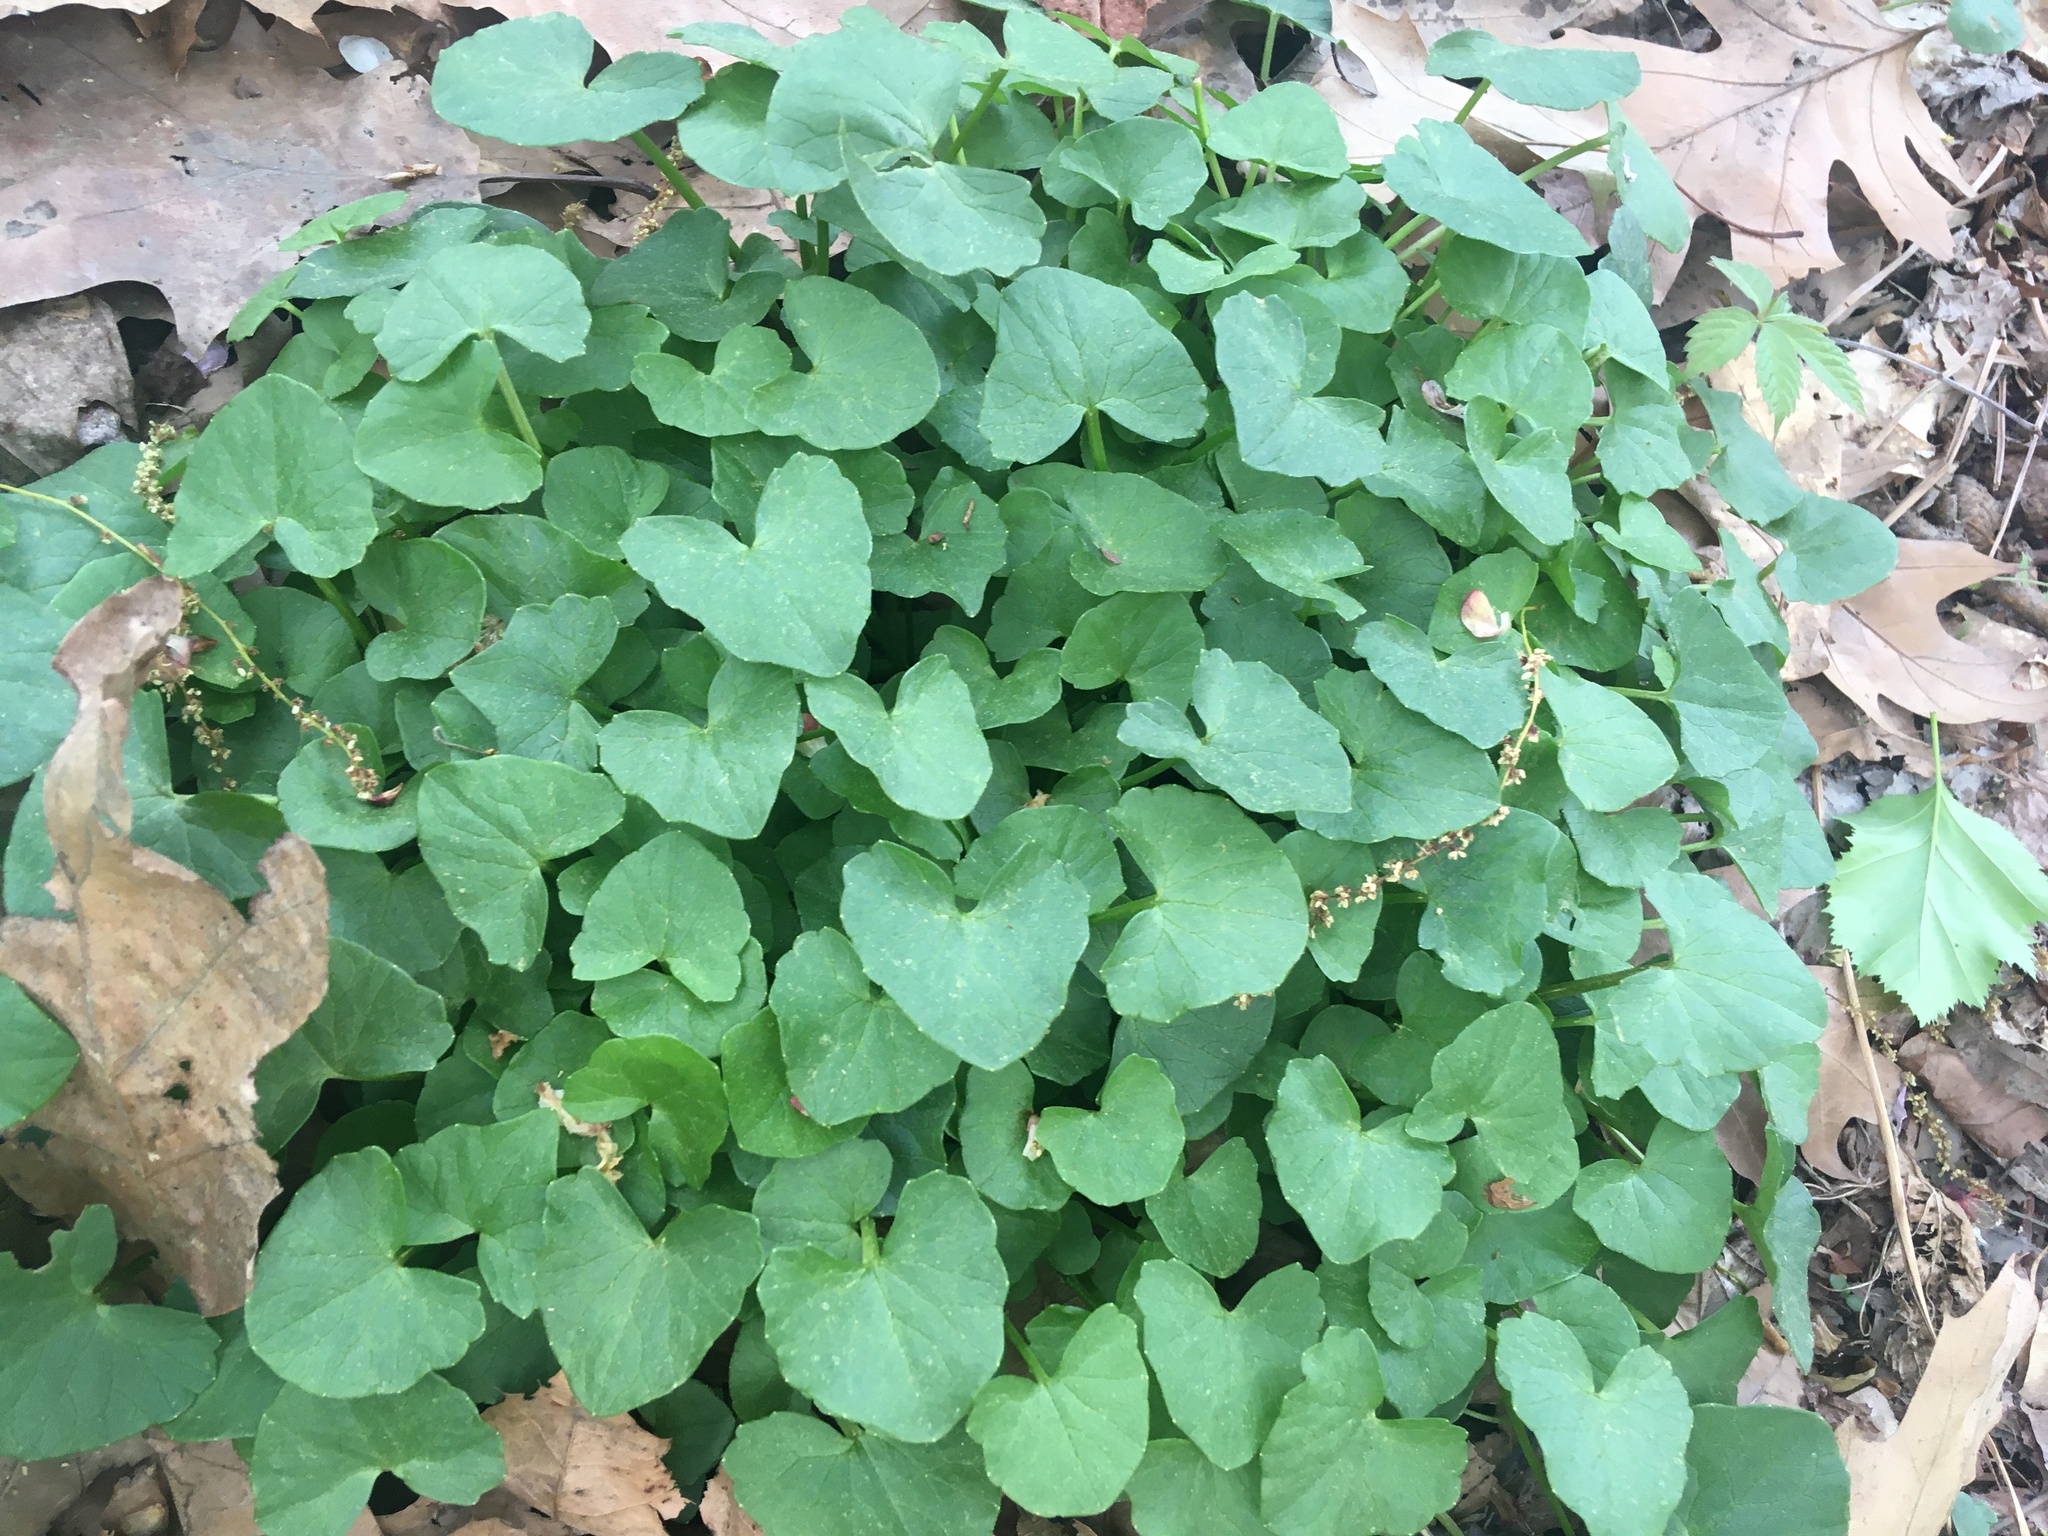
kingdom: Plantae
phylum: Tracheophyta
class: Magnoliopsida
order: Ranunculales
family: Ranunculaceae
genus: Ficaria
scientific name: Ficaria verna
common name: Lesser celandine
